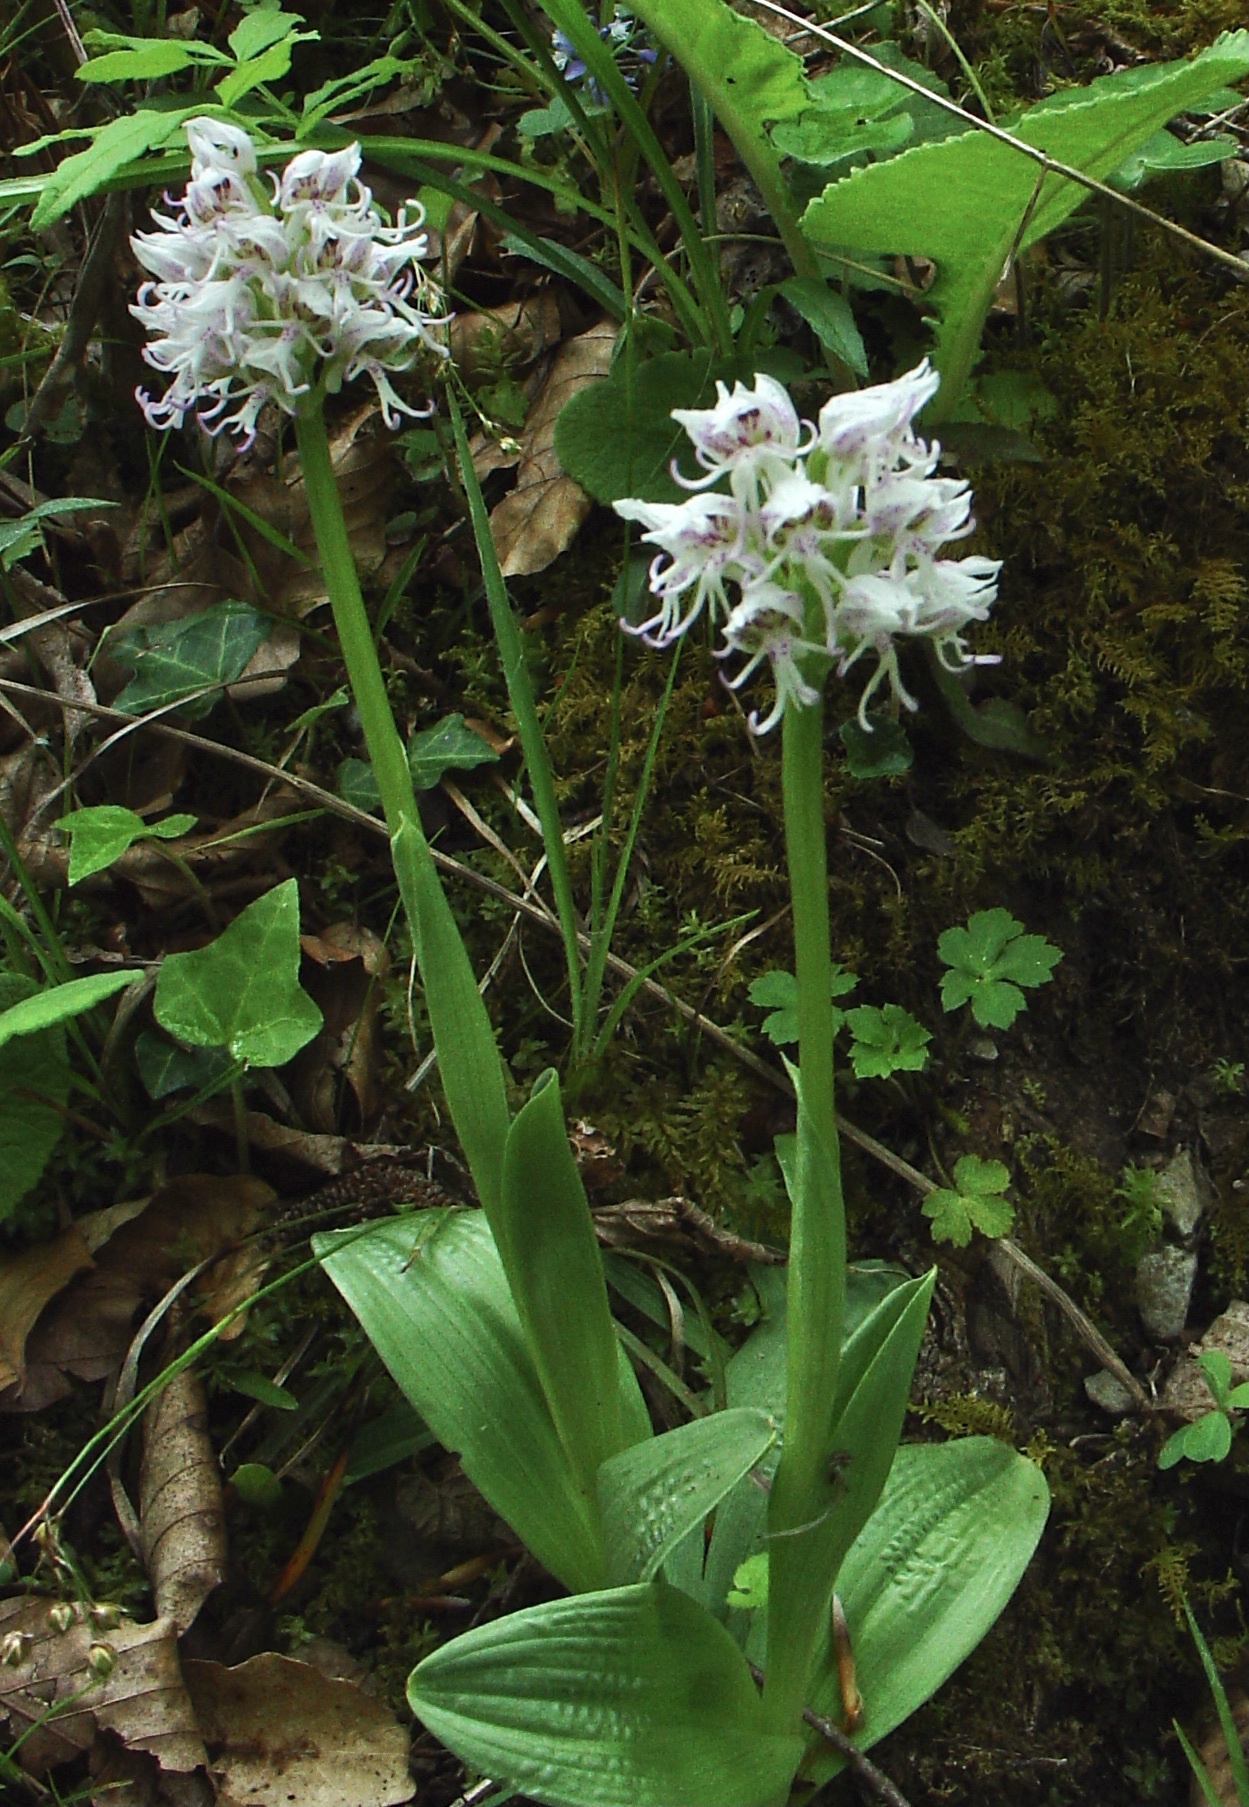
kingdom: Plantae
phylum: Tracheophyta
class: Liliopsida
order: Asparagales
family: Orchidaceae
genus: Orchis
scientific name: Orchis simia
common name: Monkey orchid
